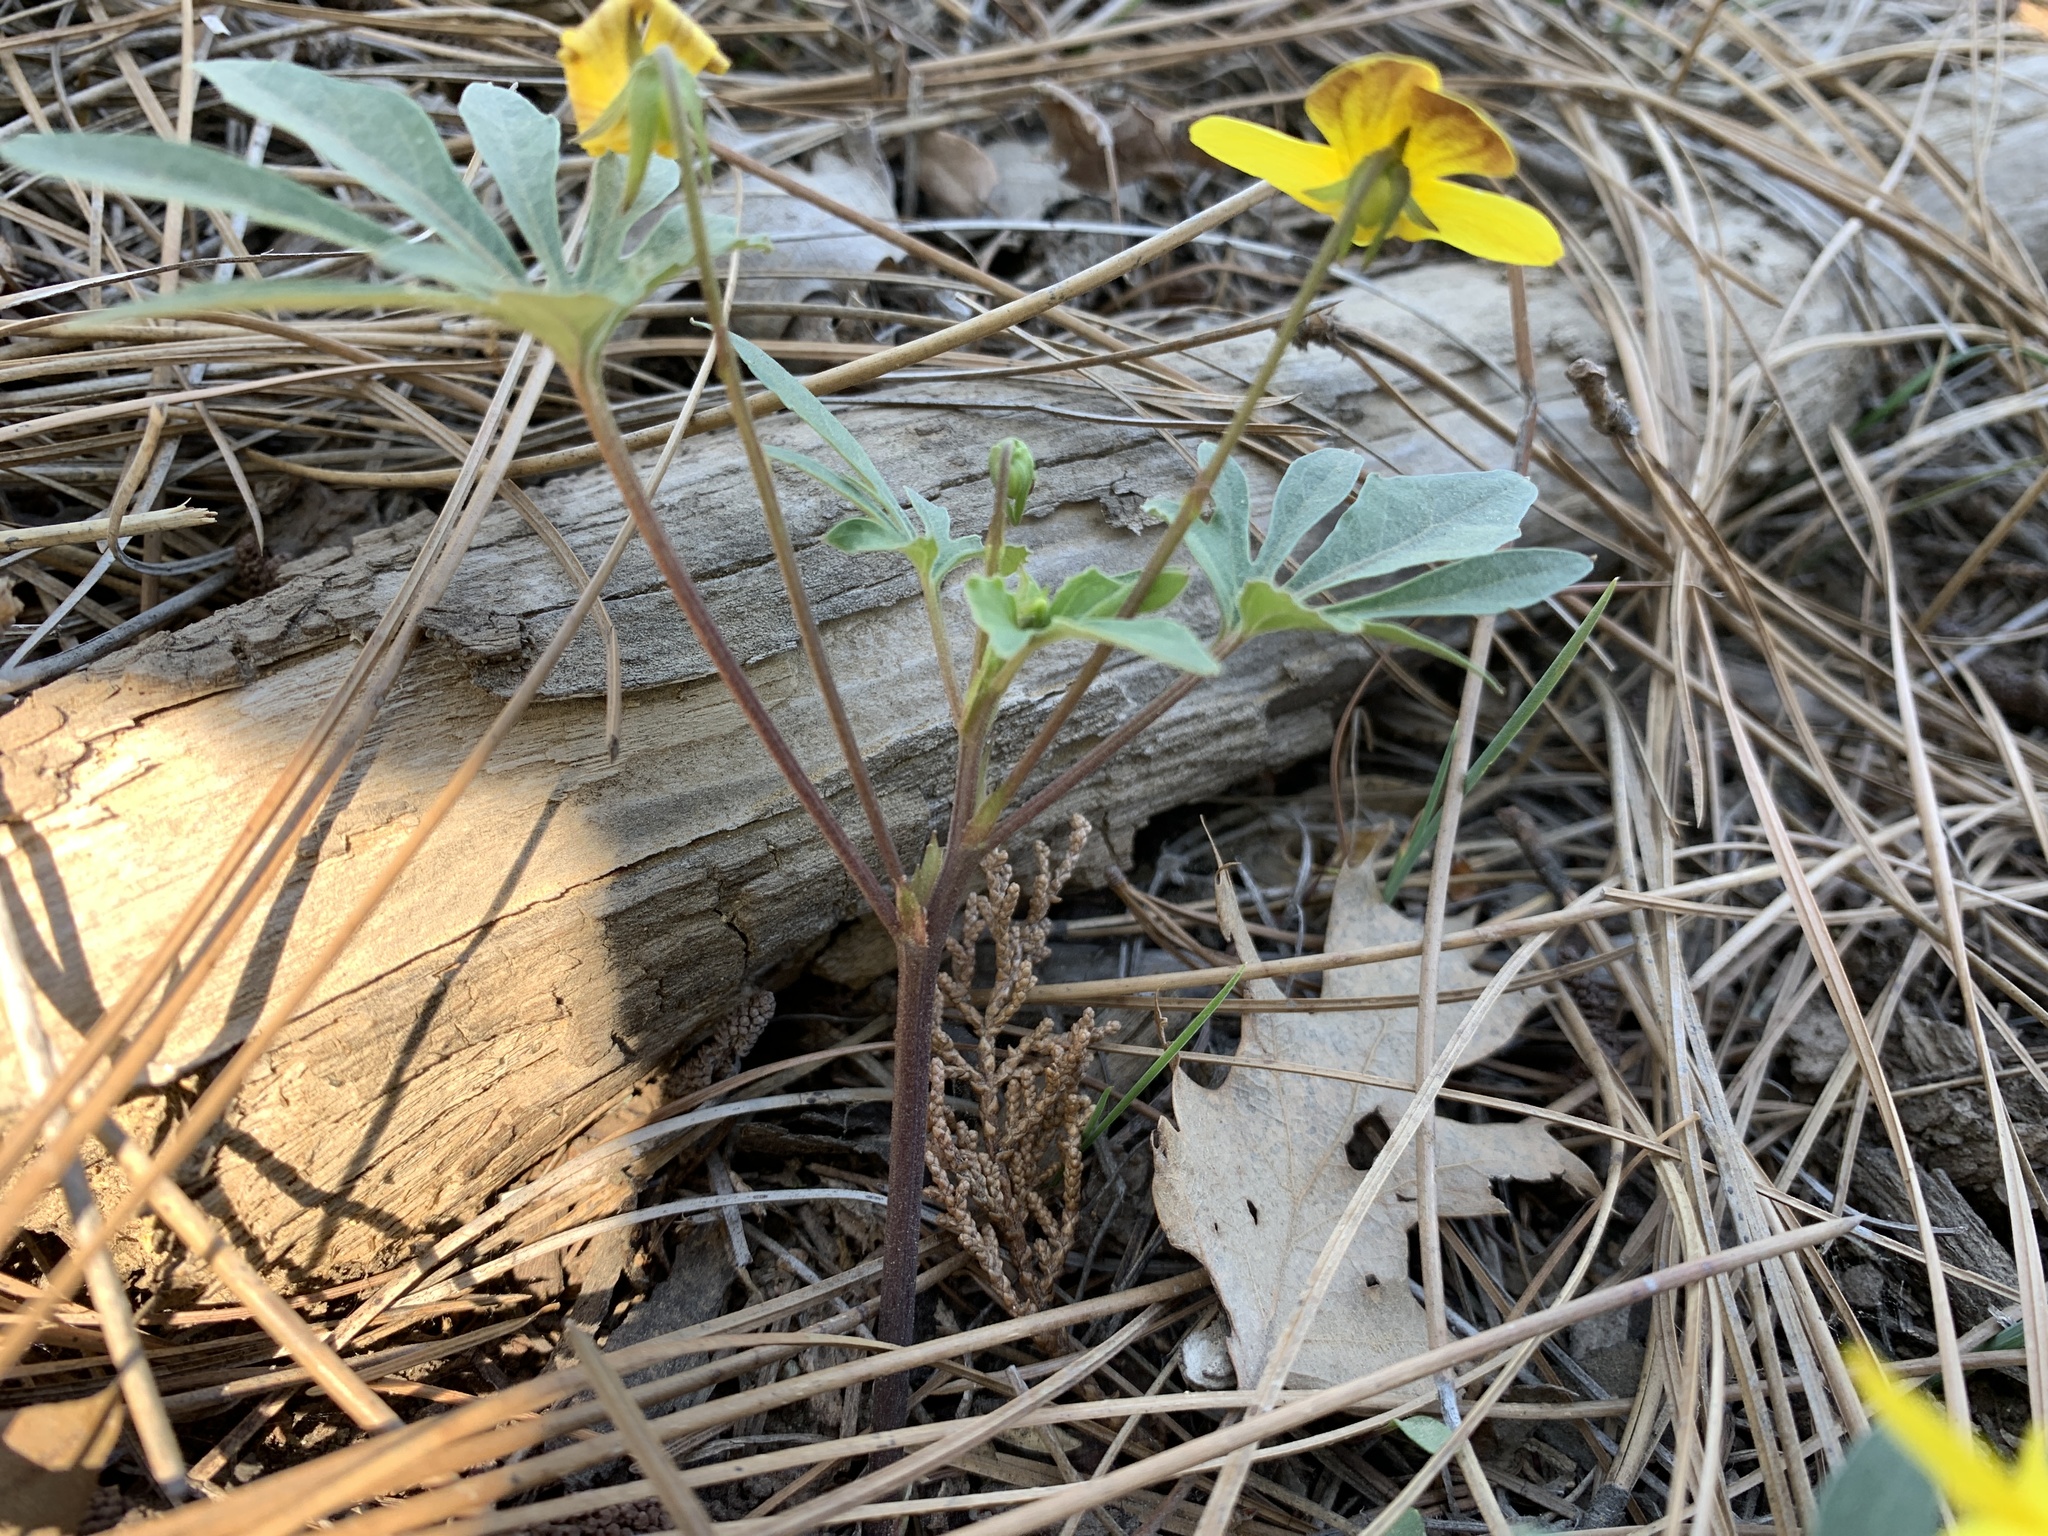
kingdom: Plantae
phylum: Tracheophyta
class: Magnoliopsida
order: Malpighiales
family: Violaceae
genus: Viola
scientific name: Viola lobata
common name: Pine violet
